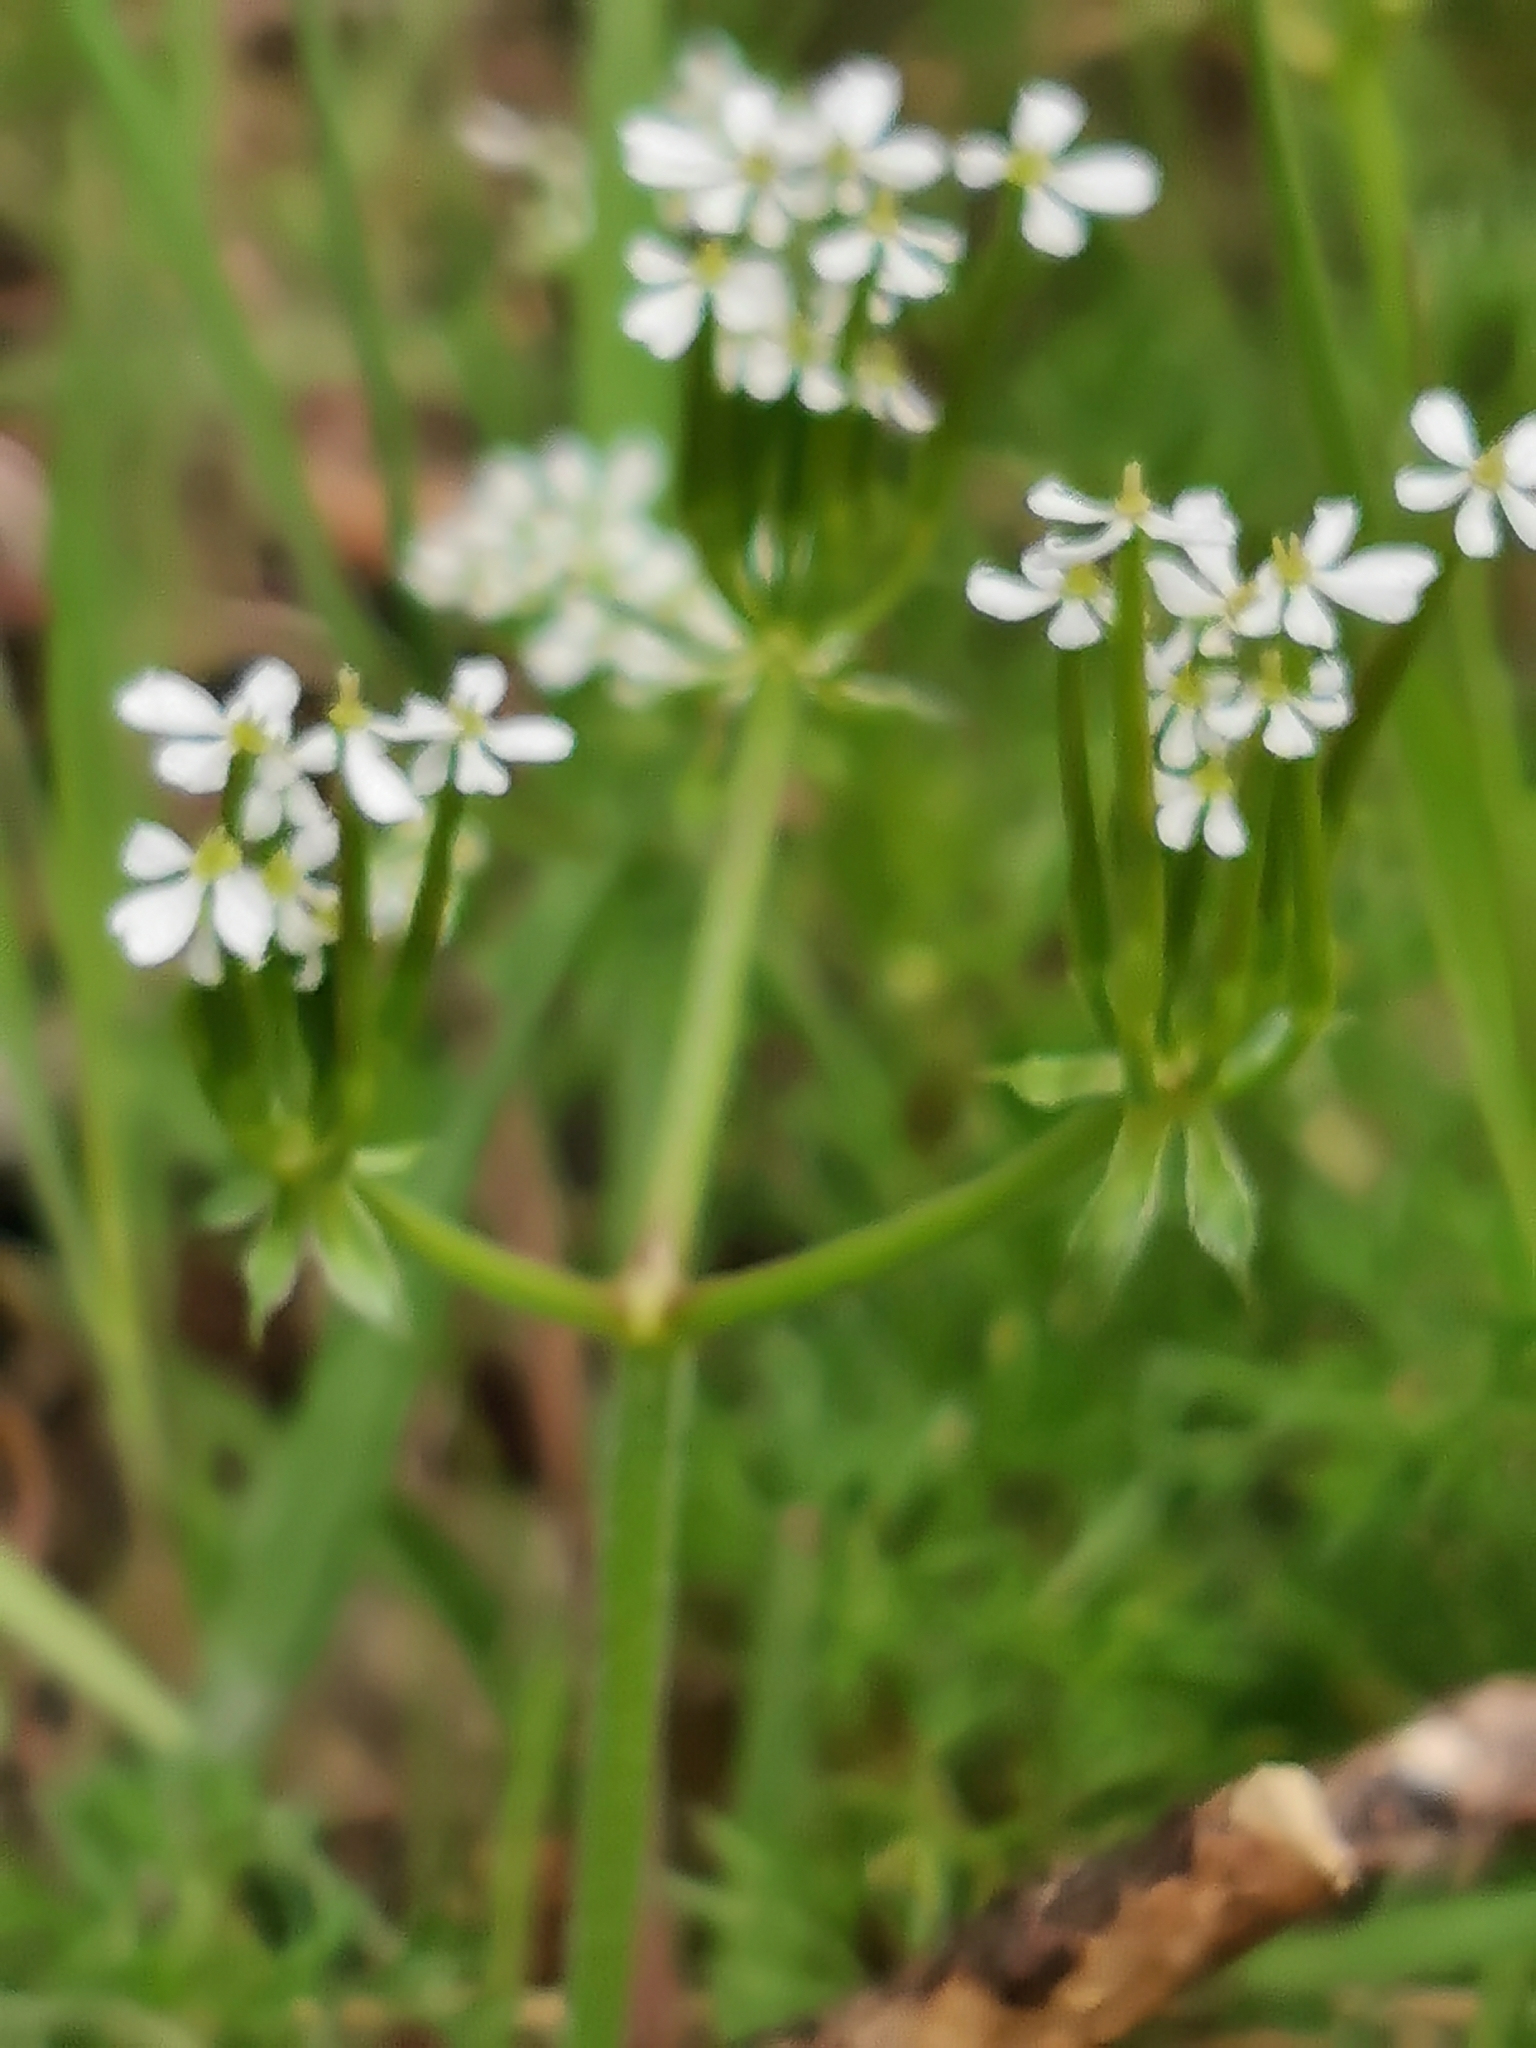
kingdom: Plantae
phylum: Tracheophyta
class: Magnoliopsida
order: Apiales
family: Apiaceae
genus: Scandix
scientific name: Scandix pecten-veneris
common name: Shepherd's-needle
